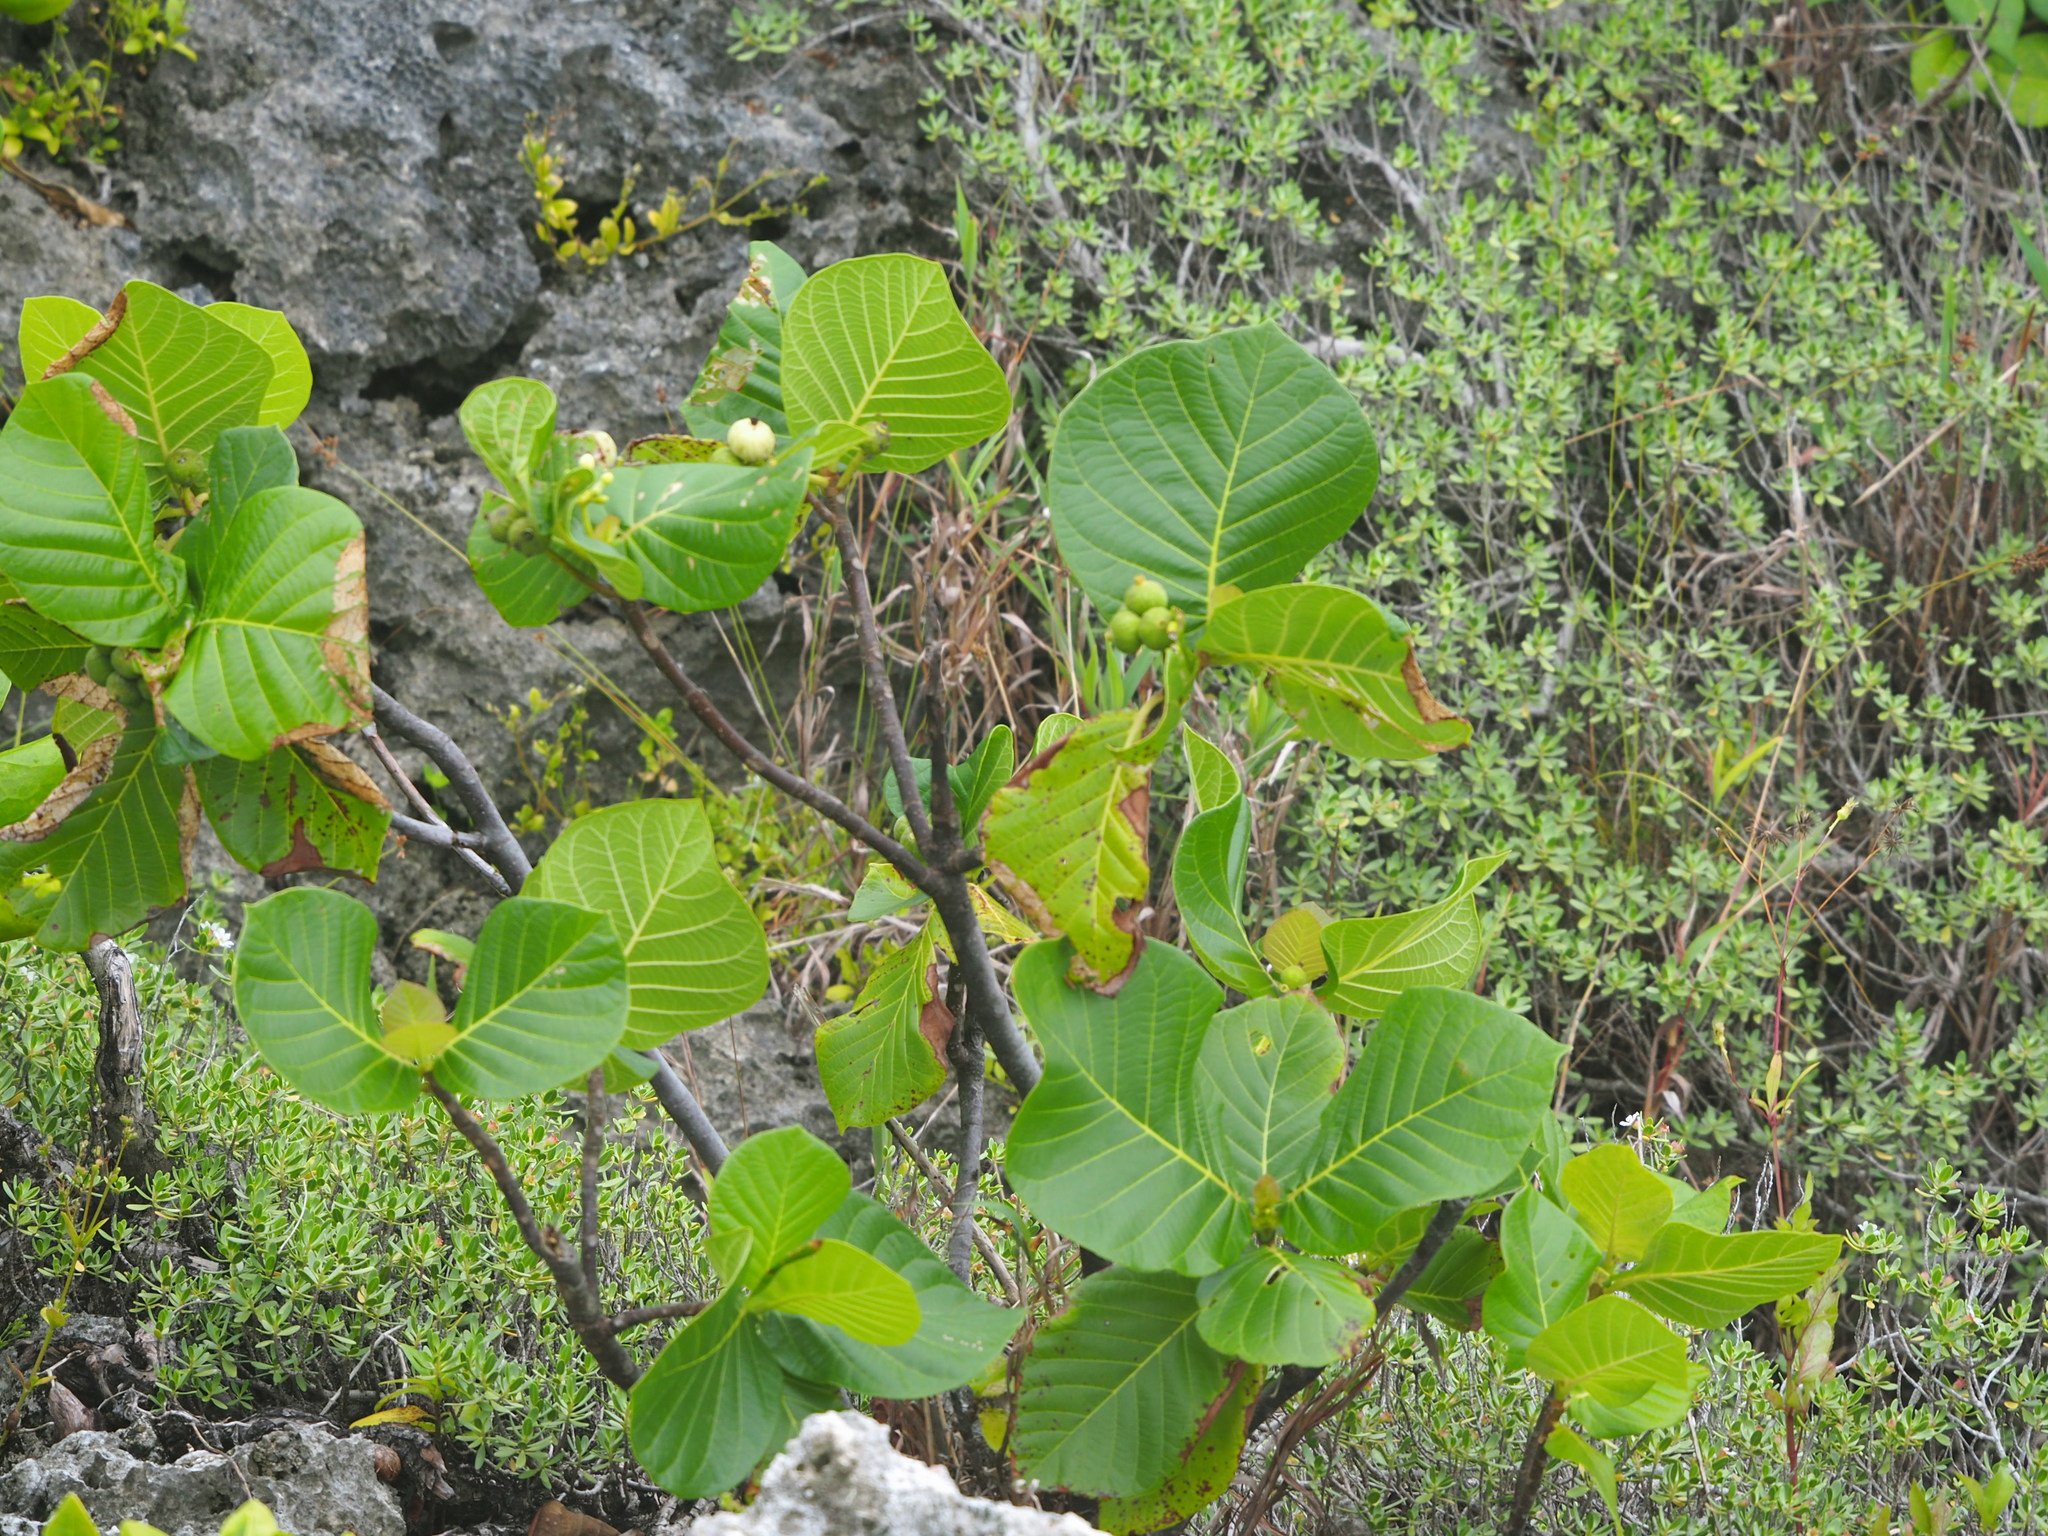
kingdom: Plantae
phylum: Tracheophyta
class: Magnoliopsida
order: Gentianales
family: Rubiaceae
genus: Guettarda
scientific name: Guettarda speciosa
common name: Sea randa
